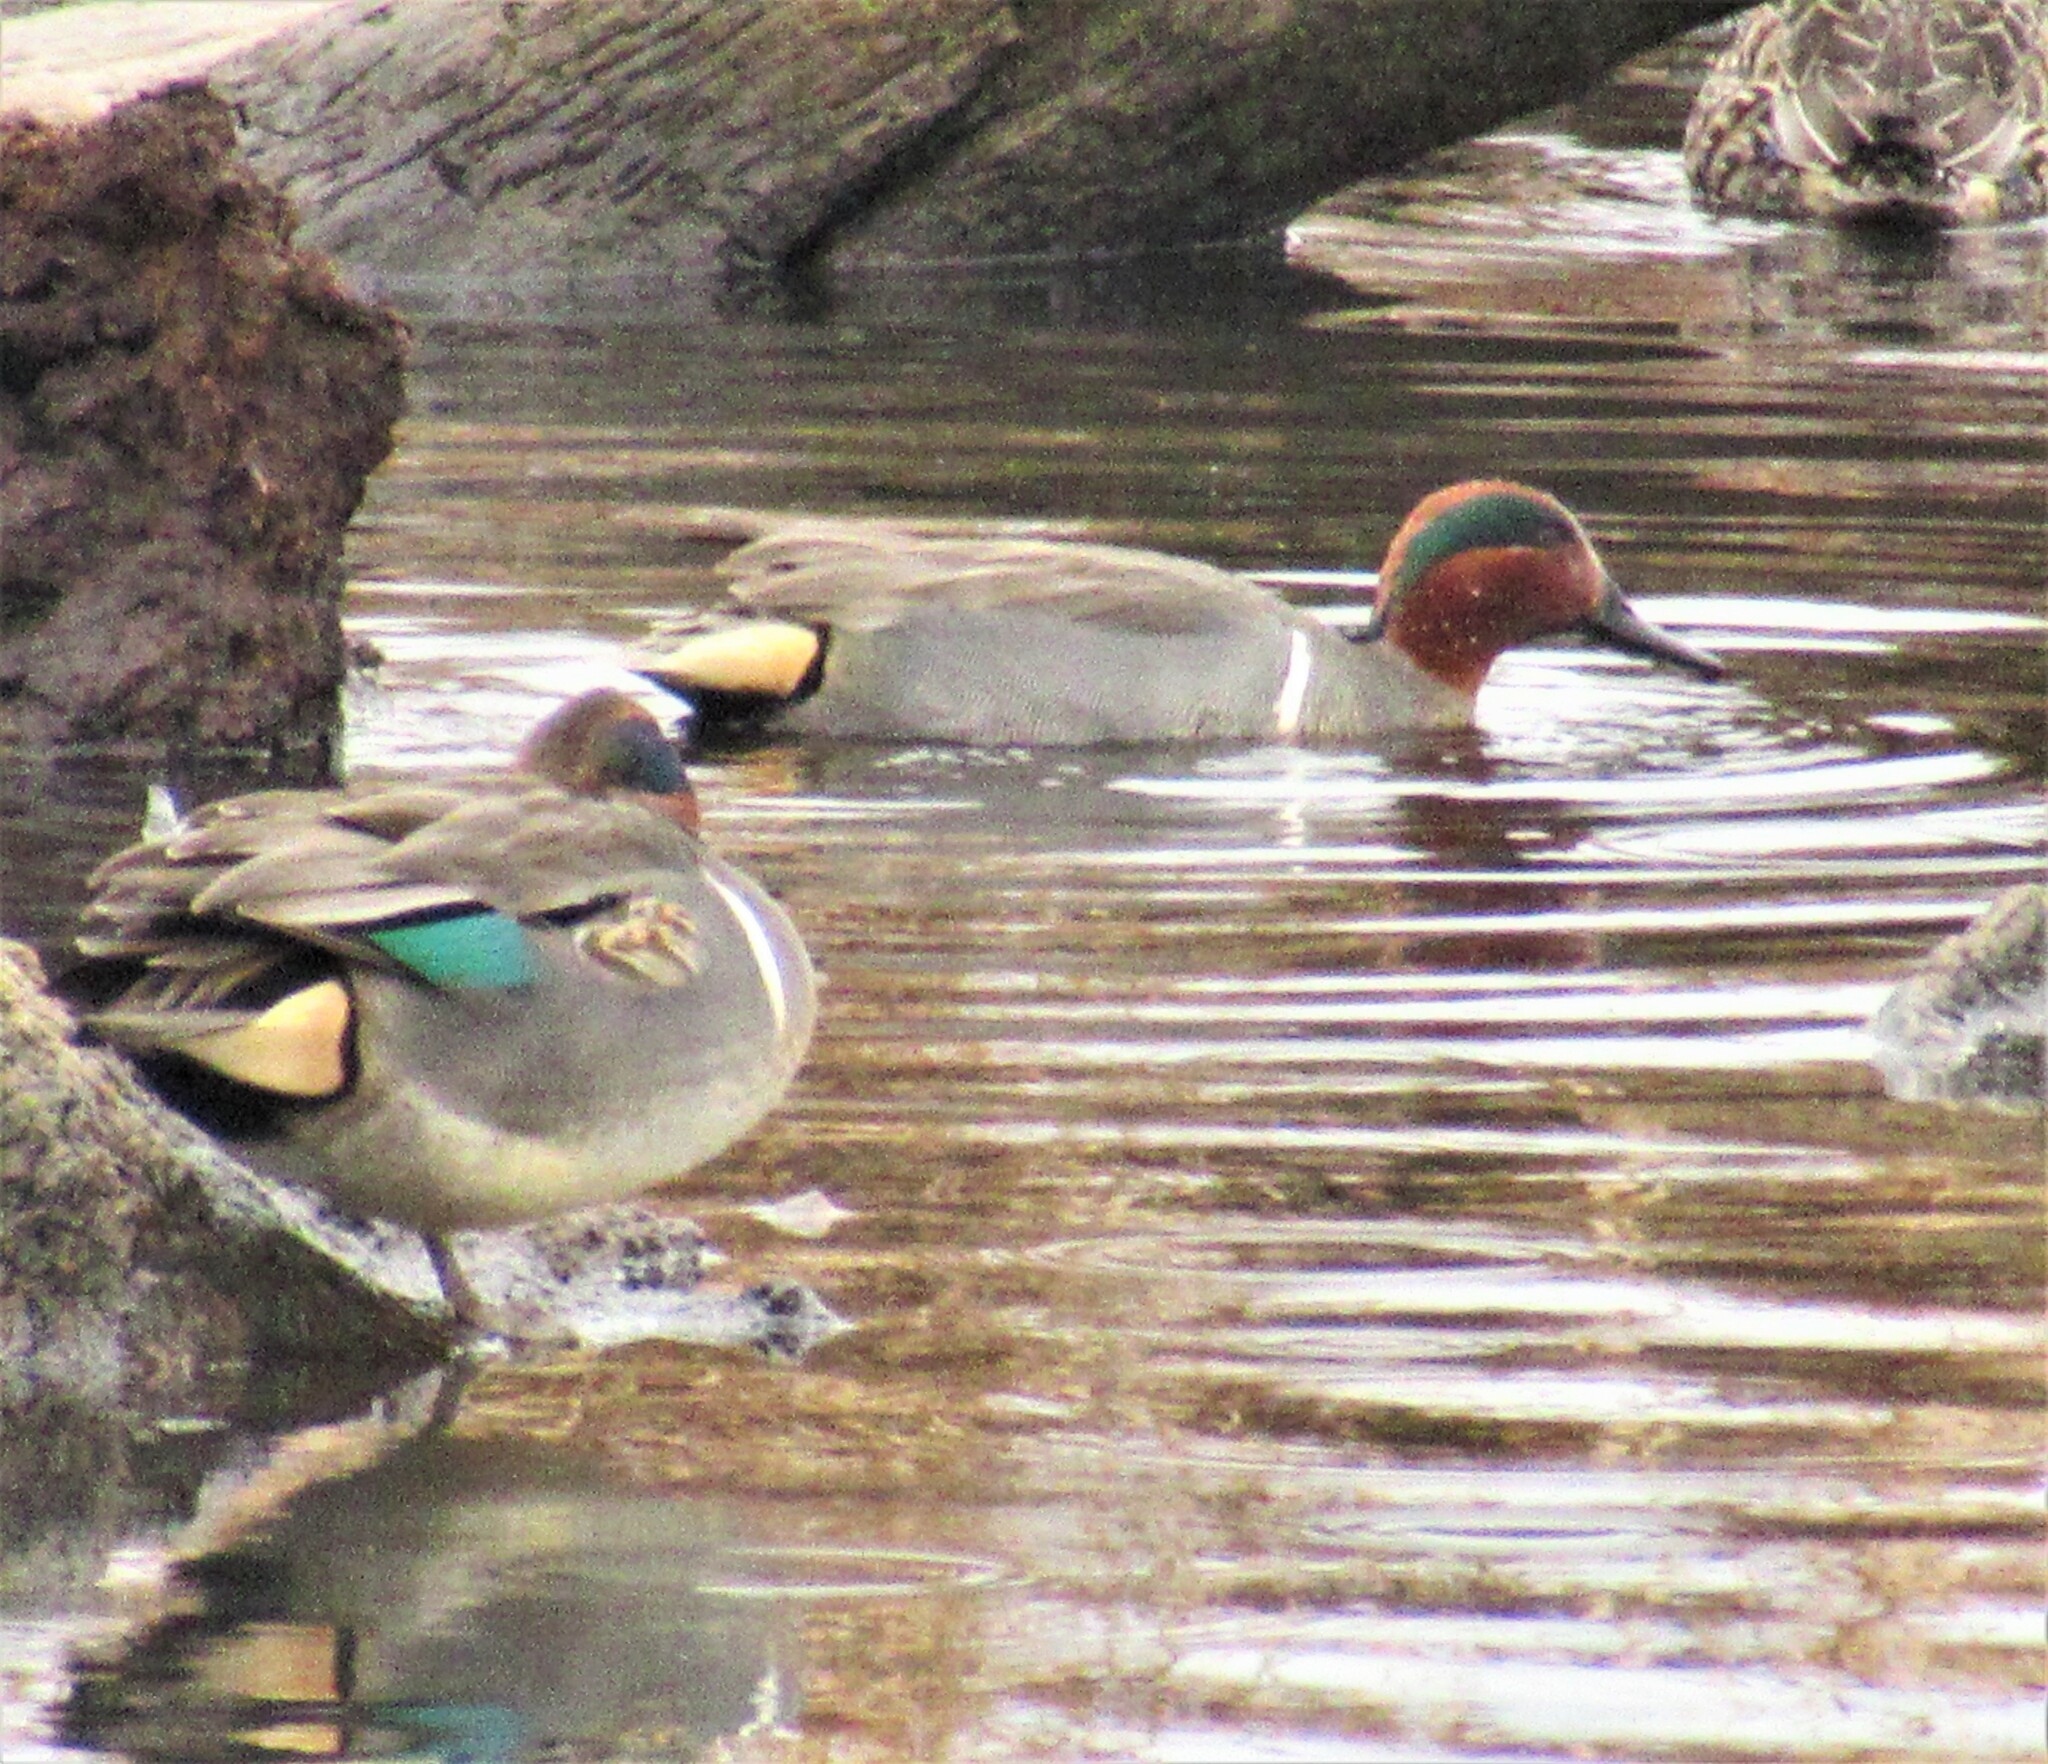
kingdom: Animalia
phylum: Chordata
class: Aves
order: Anseriformes
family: Anatidae
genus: Anas
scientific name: Anas crecca
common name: Eurasian teal
